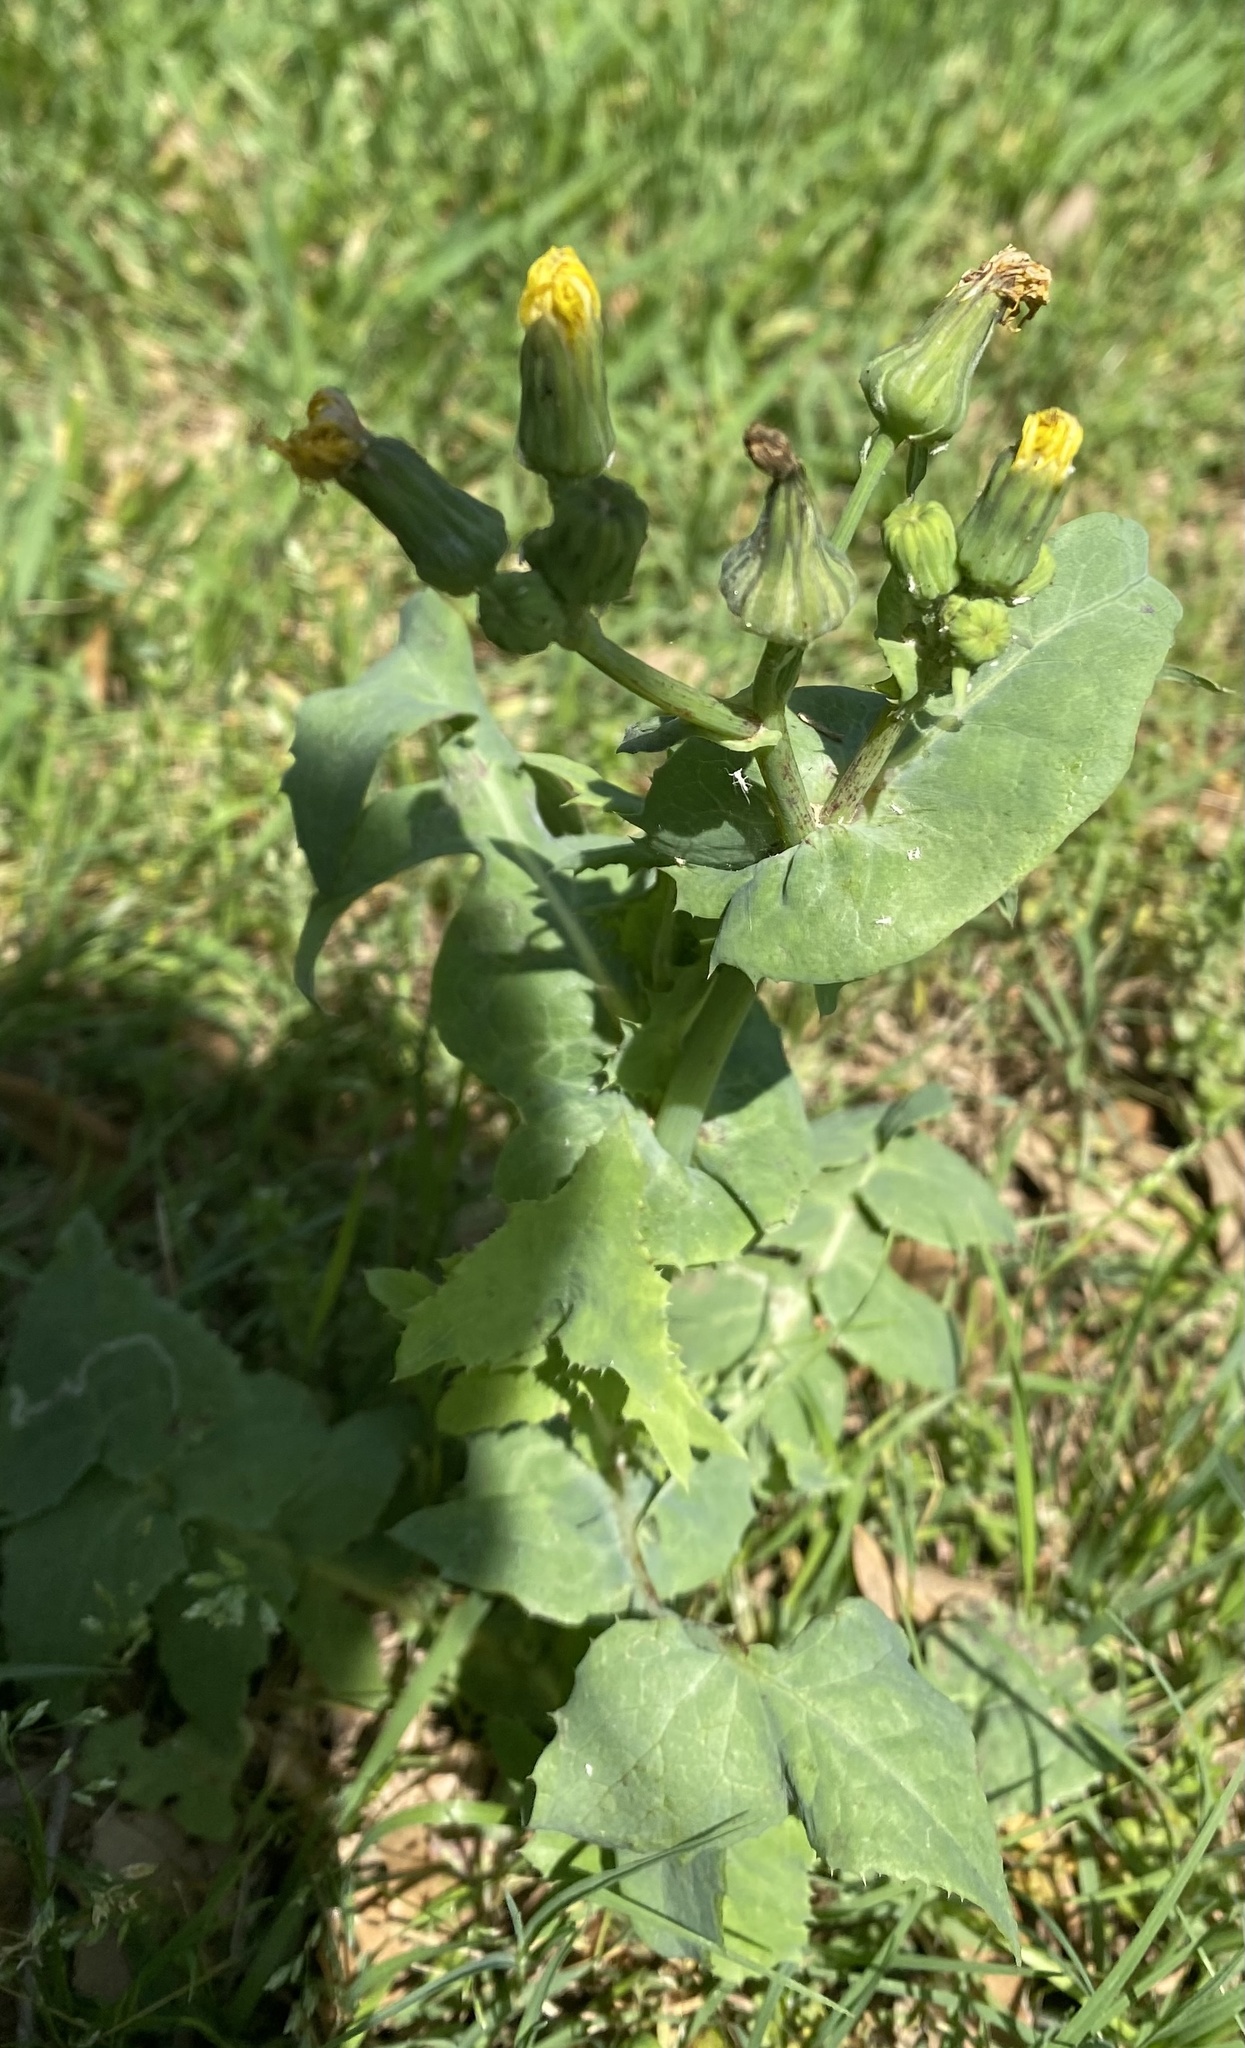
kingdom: Plantae
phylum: Tracheophyta
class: Magnoliopsida
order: Asterales
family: Asteraceae
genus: Sonchus
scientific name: Sonchus oleraceus
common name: Common sowthistle
